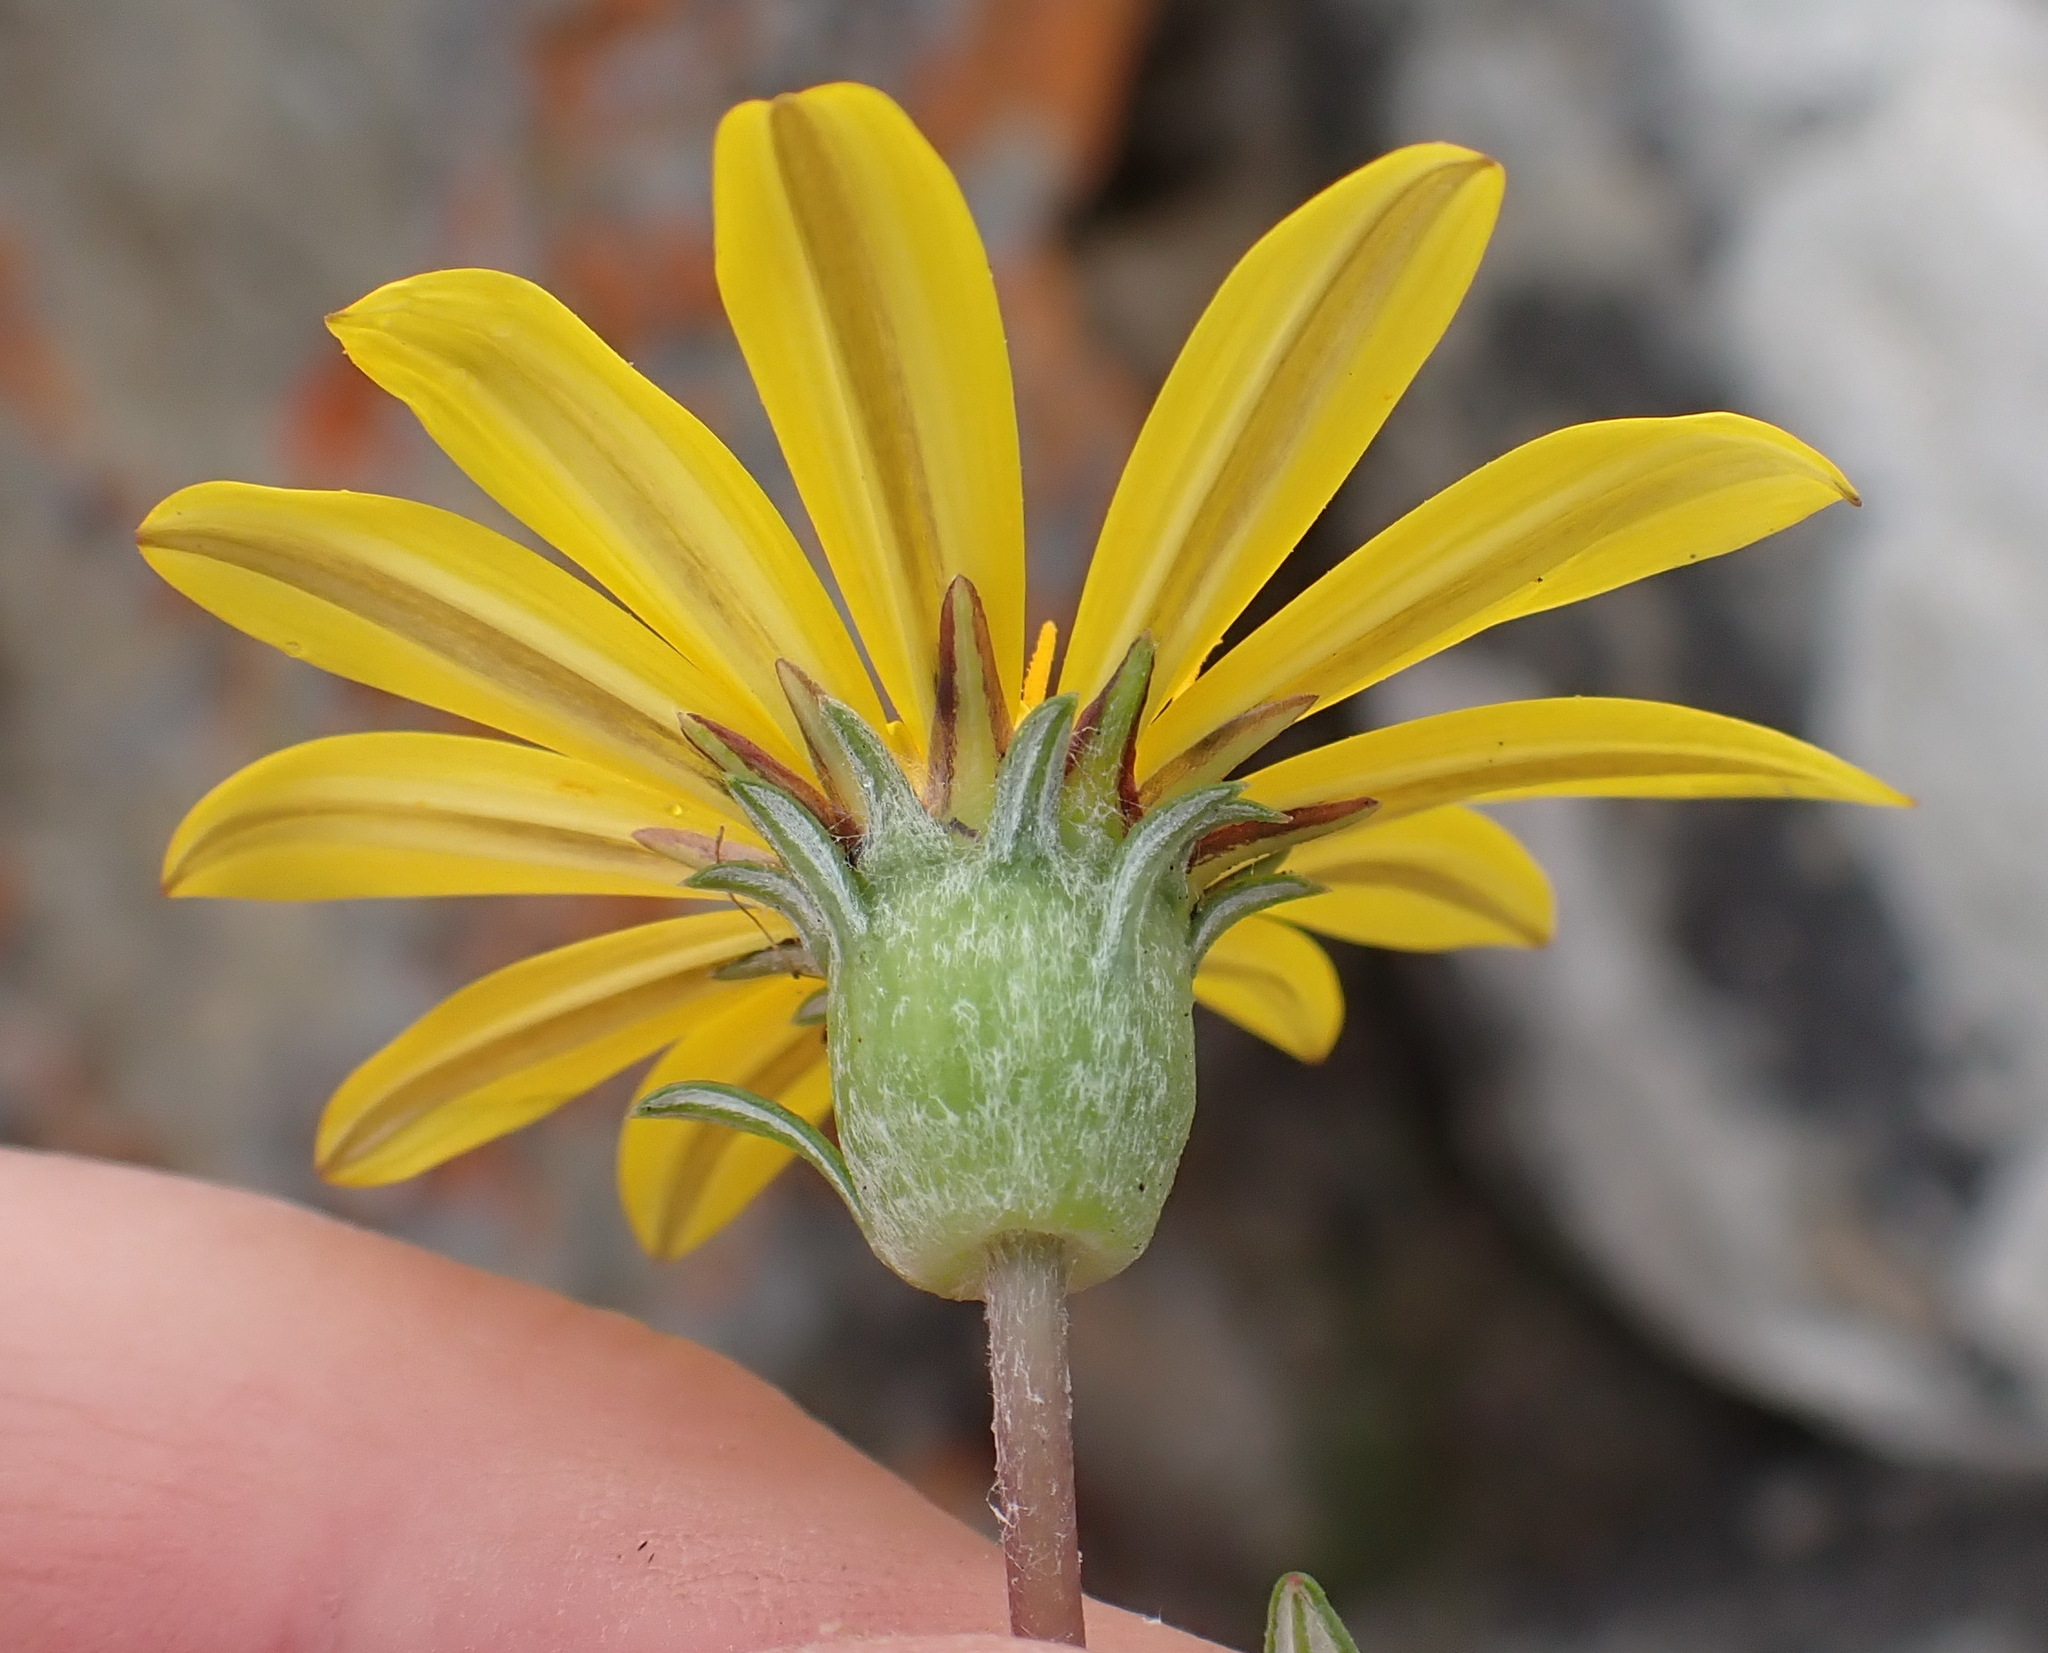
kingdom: Plantae
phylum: Tracheophyta
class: Magnoliopsida
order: Asterales
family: Asteraceae
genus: Gazania
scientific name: Gazania rigens
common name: Treasureflower
